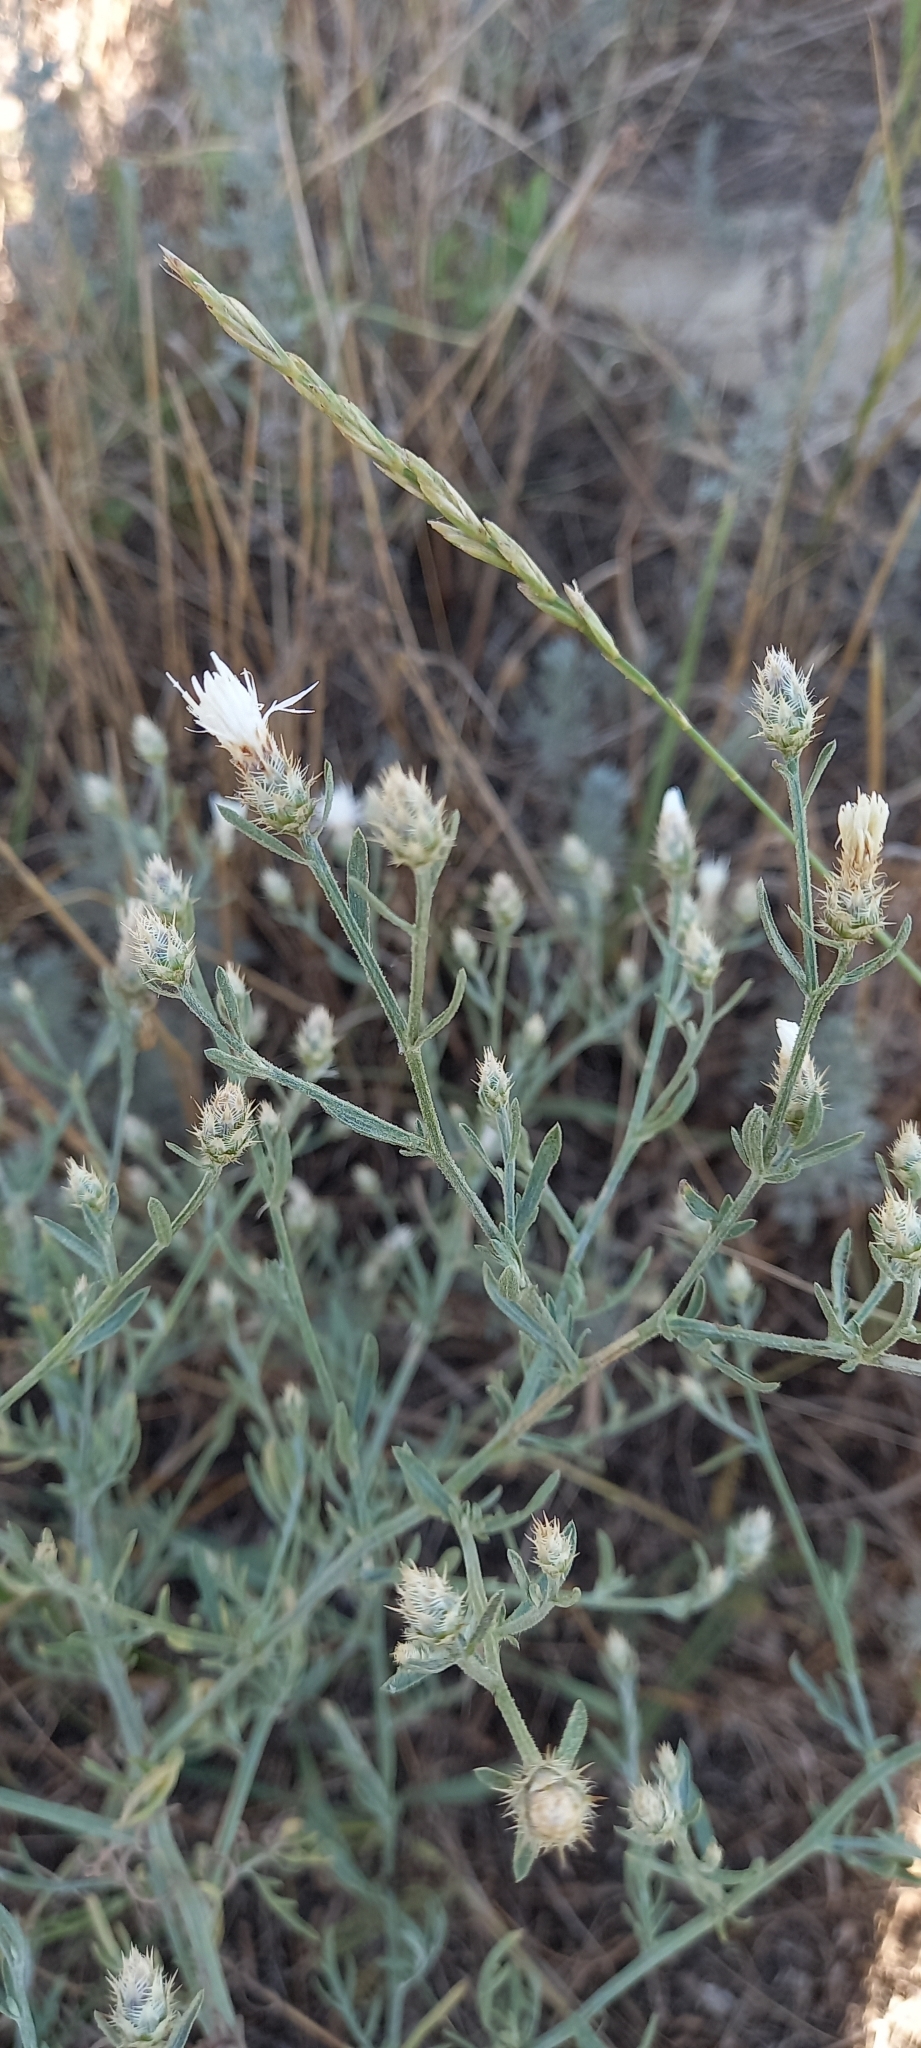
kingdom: Plantae
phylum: Tracheophyta
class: Magnoliopsida
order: Asterales
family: Asteraceae
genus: Centaurea
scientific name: Centaurea diffusa
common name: Diffuse knapweed
